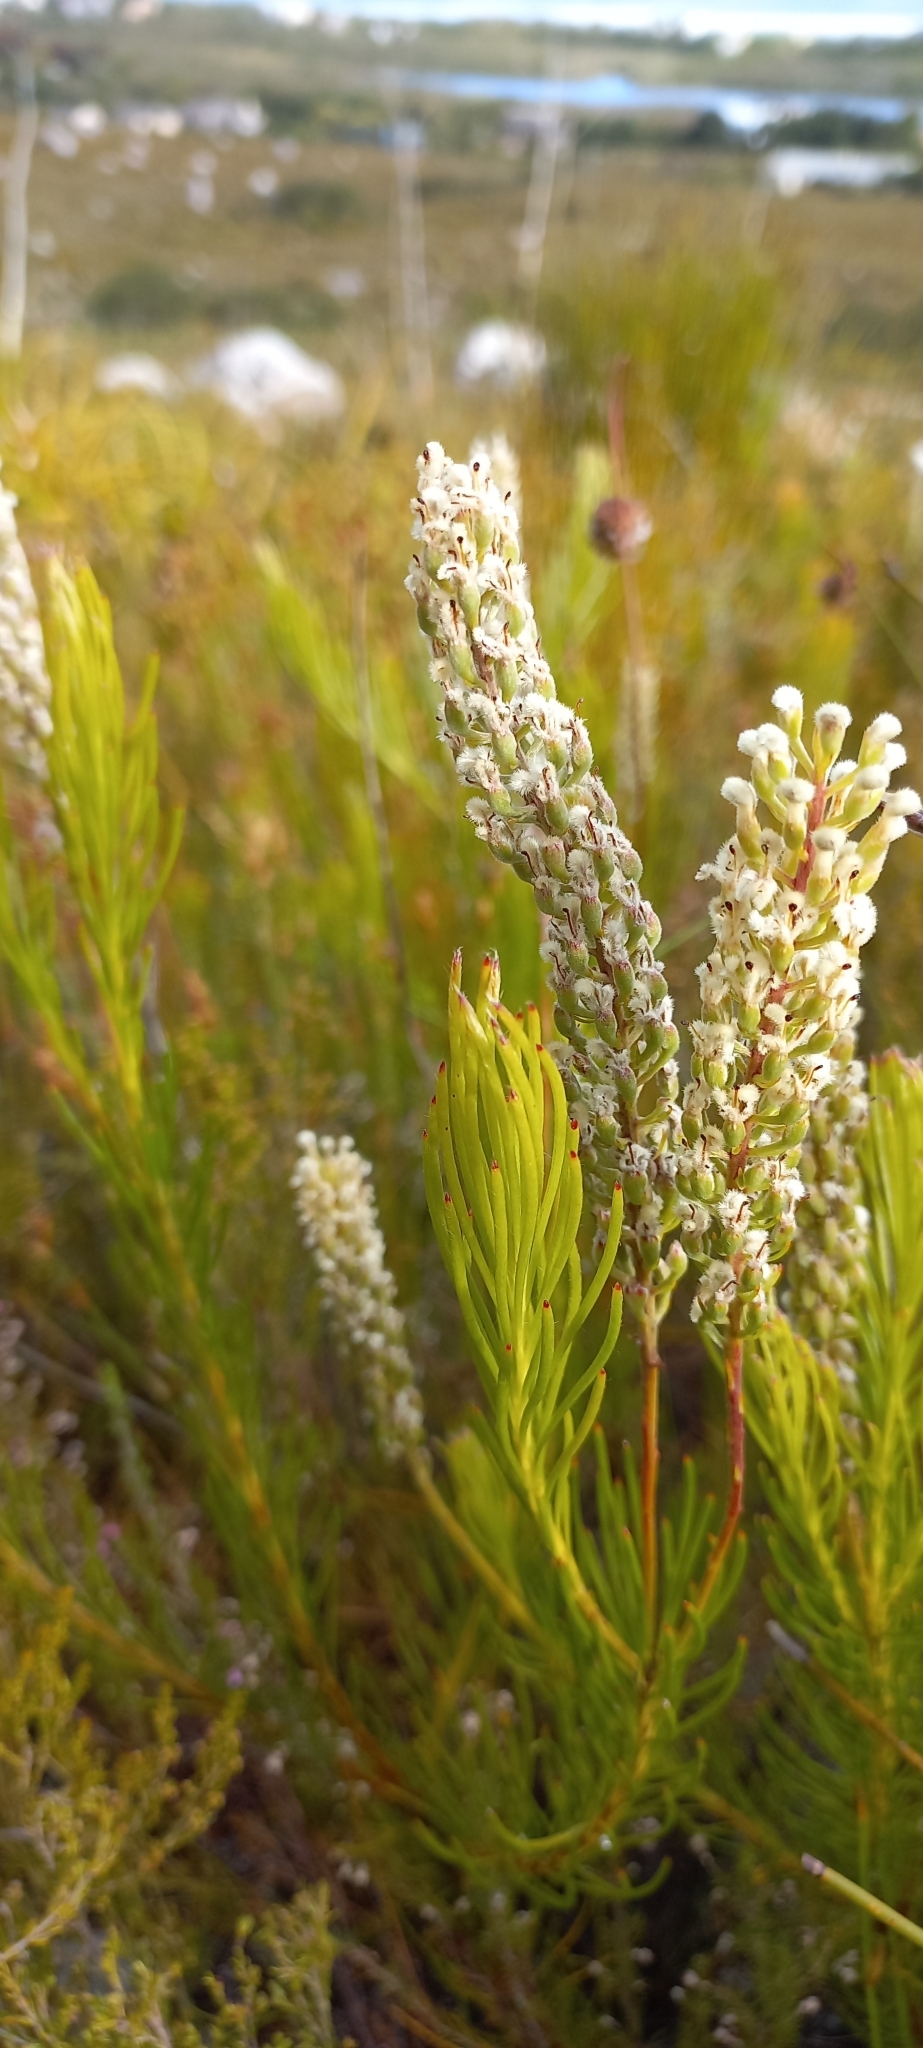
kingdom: Plantae
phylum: Tracheophyta
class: Magnoliopsida
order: Proteales
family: Proteaceae
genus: Spatalla
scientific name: Spatalla curvifolia
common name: White-stalked spoon
